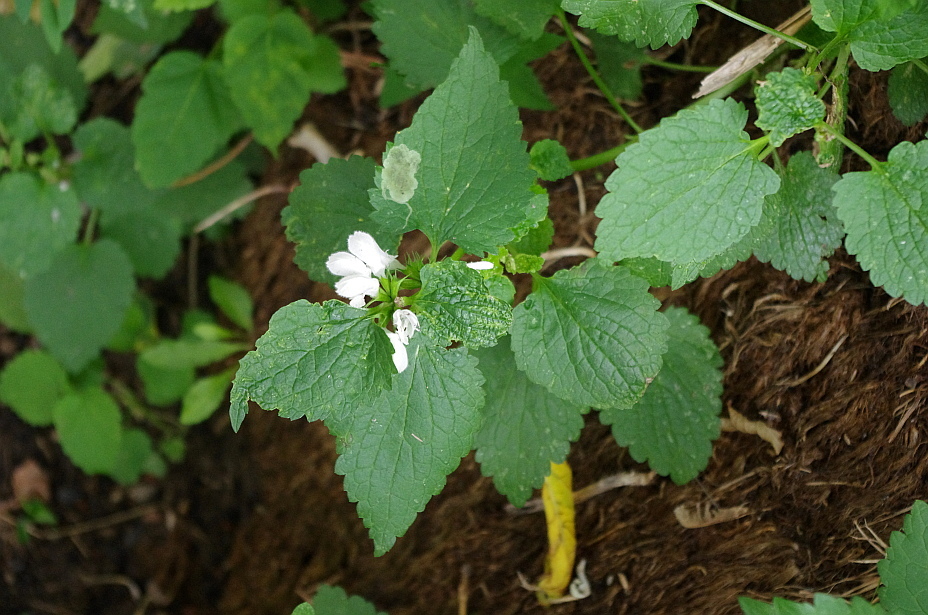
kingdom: Plantae
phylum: Tracheophyta
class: Magnoliopsida
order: Lamiales
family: Lamiaceae
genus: Lamium
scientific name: Lamium album
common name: White dead-nettle
